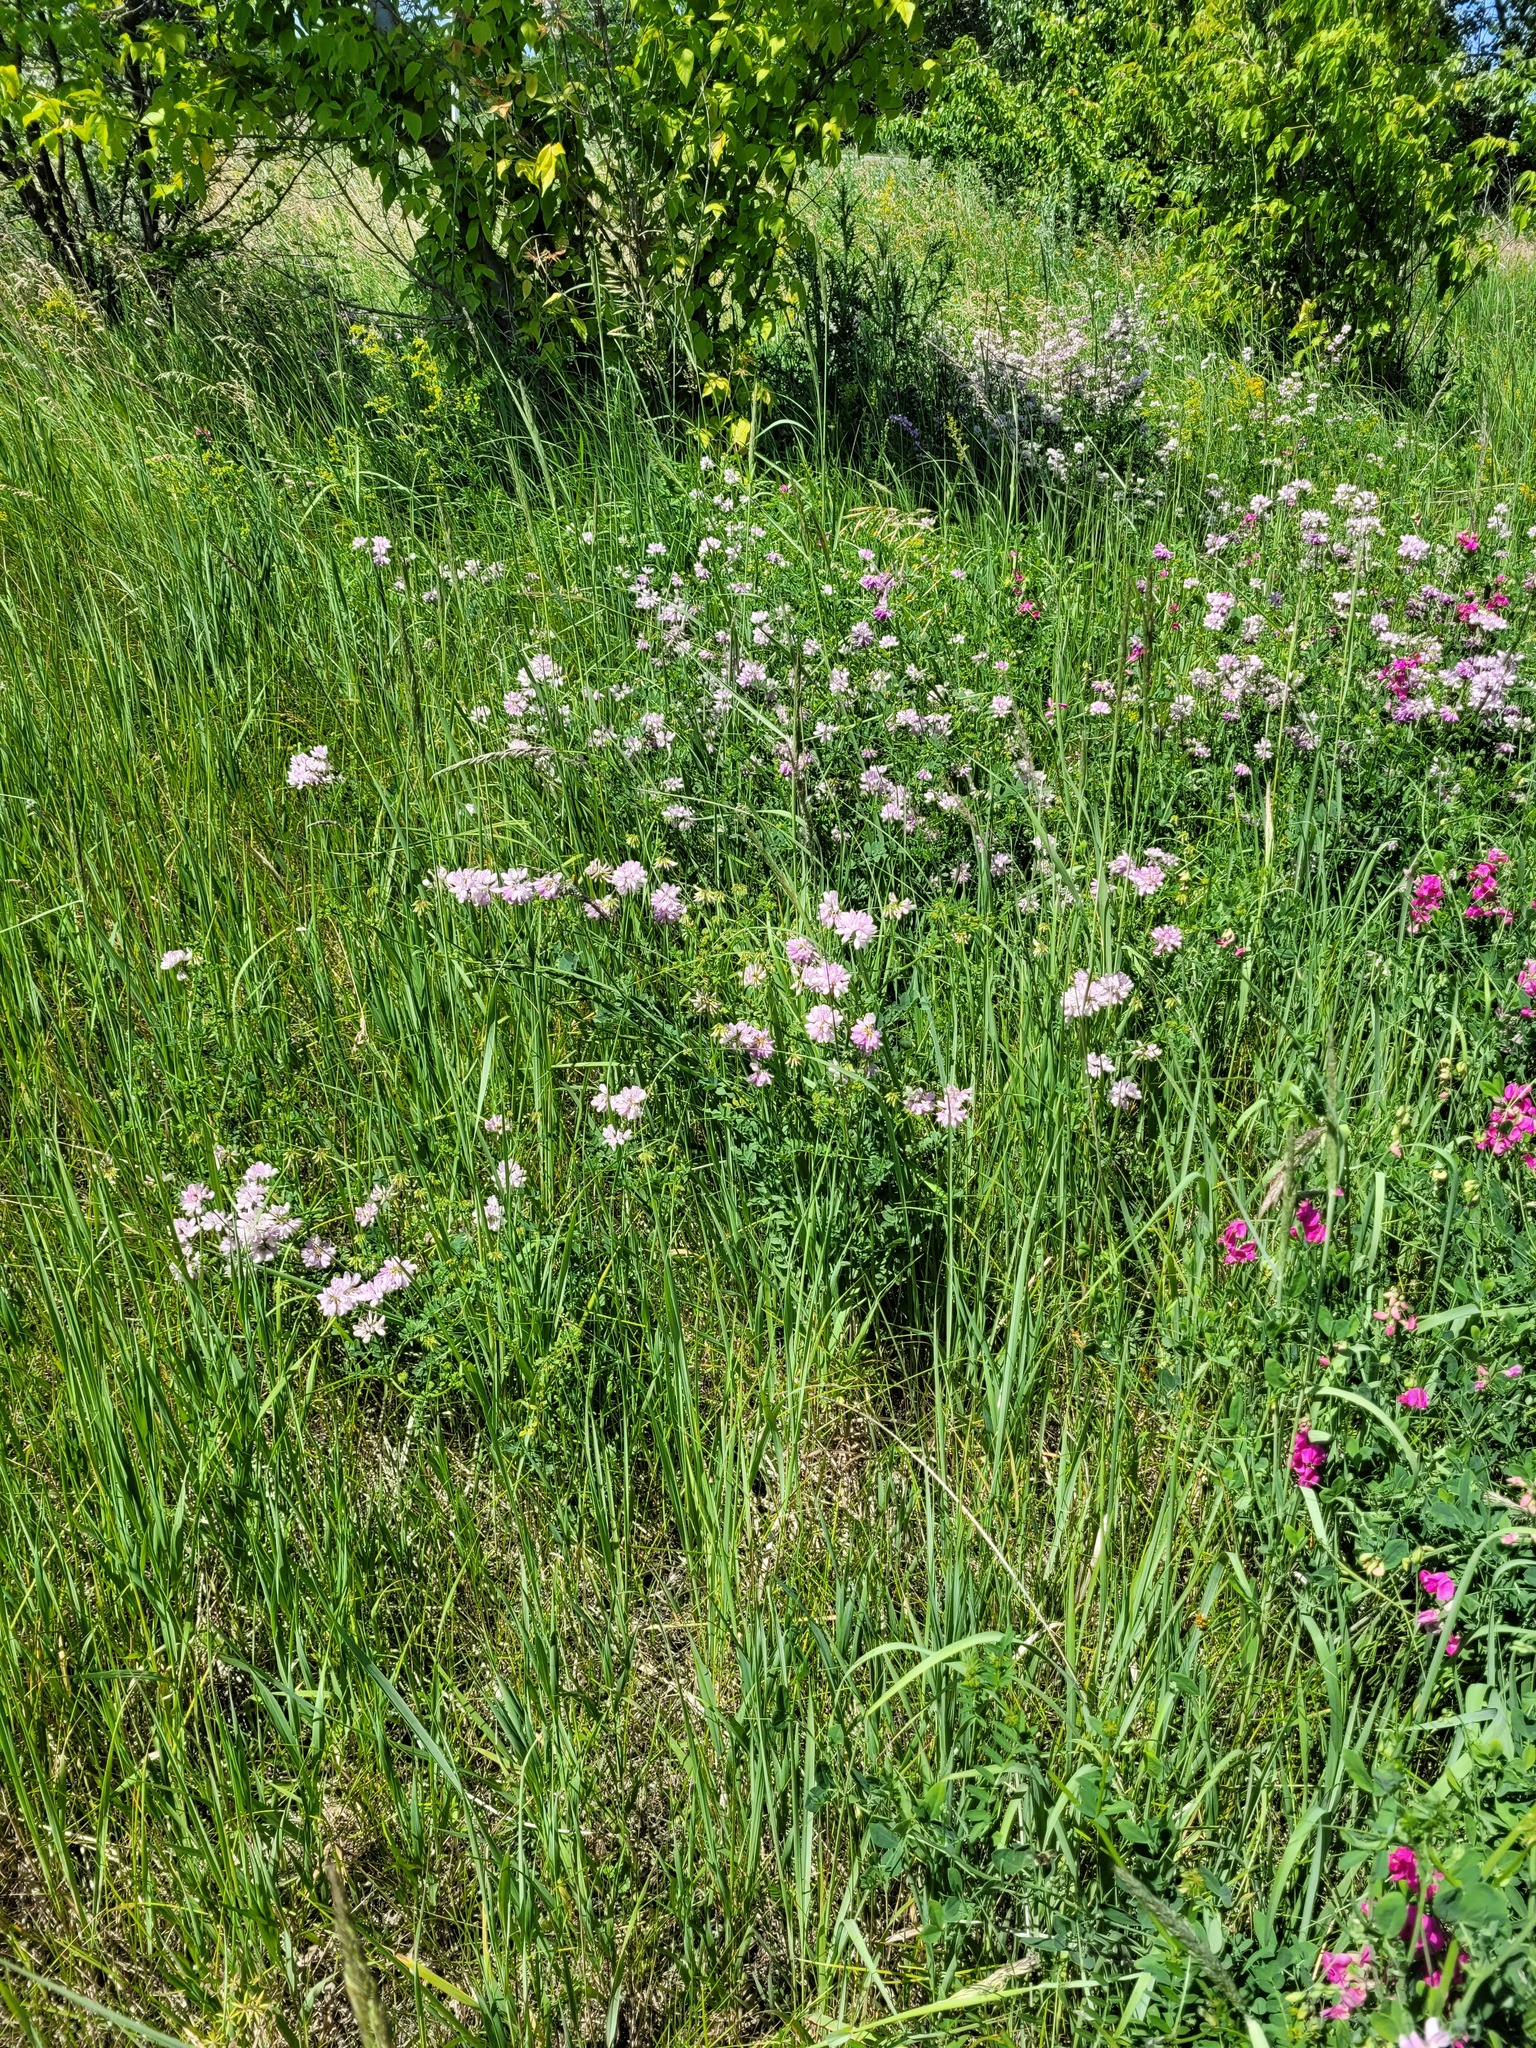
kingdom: Plantae
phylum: Tracheophyta
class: Magnoliopsida
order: Fabales
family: Fabaceae
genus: Coronilla
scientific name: Coronilla varia
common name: Crownvetch
